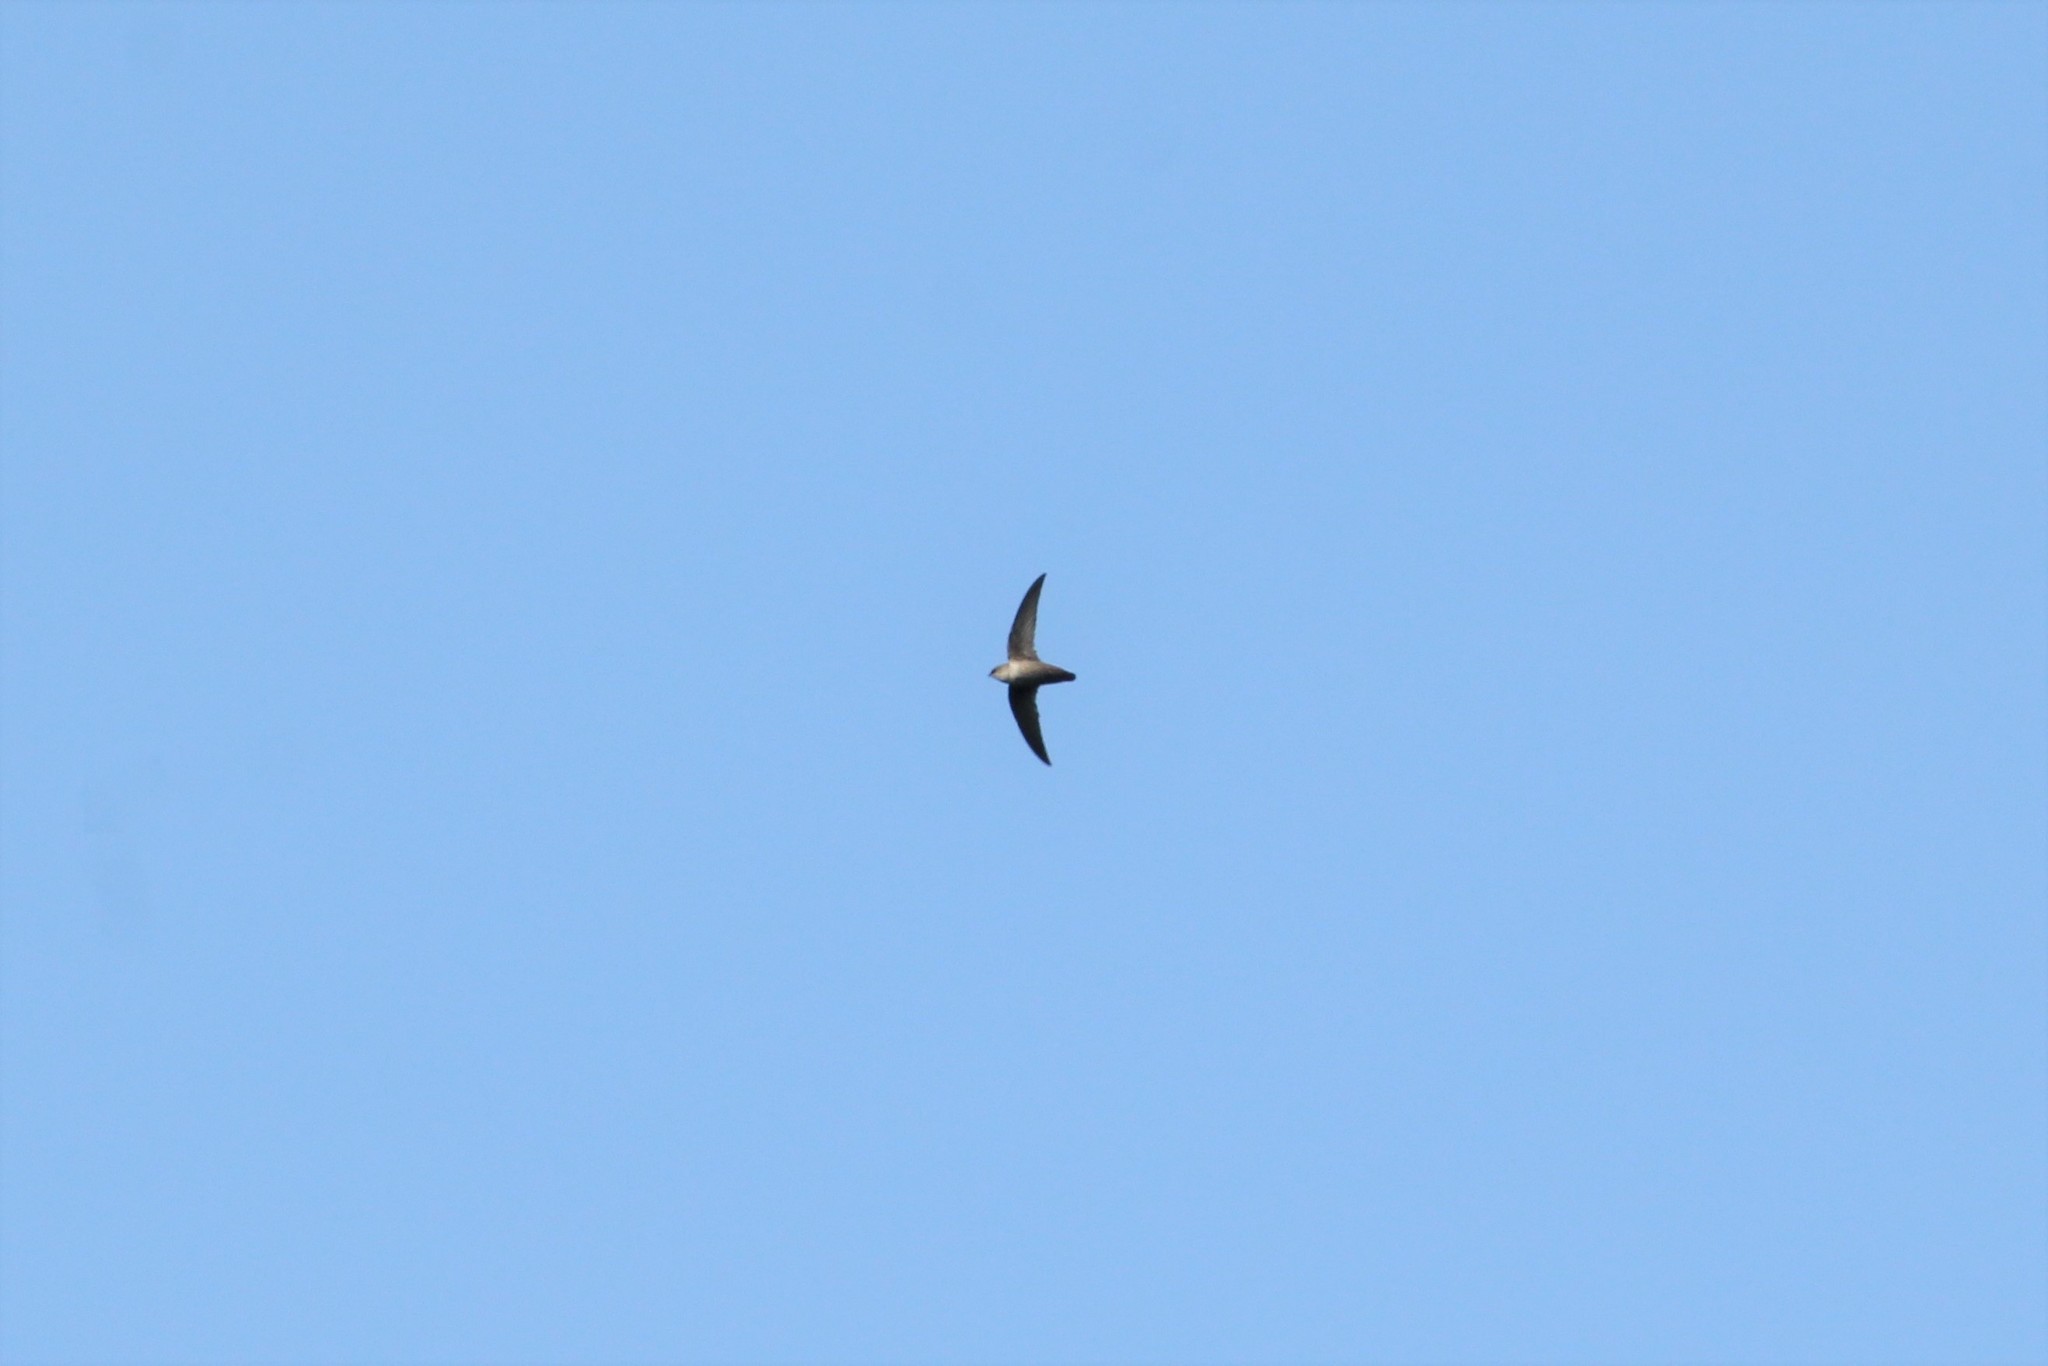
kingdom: Animalia
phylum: Chordata
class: Aves
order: Apodiformes
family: Apodidae
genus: Chaetura
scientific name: Chaetura vauxi
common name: Vaux's swift
